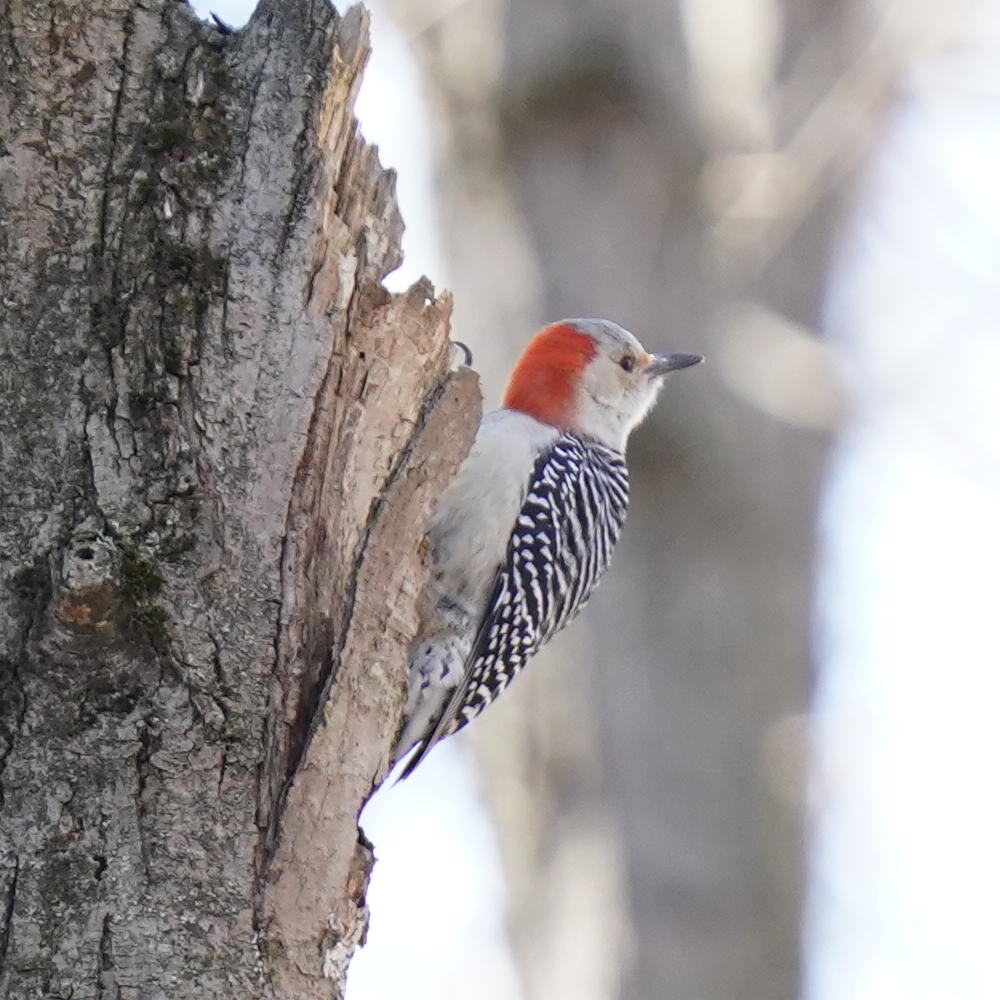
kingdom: Animalia
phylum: Chordata
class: Aves
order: Piciformes
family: Picidae
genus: Melanerpes
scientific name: Melanerpes carolinus
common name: Red-bellied woodpecker
